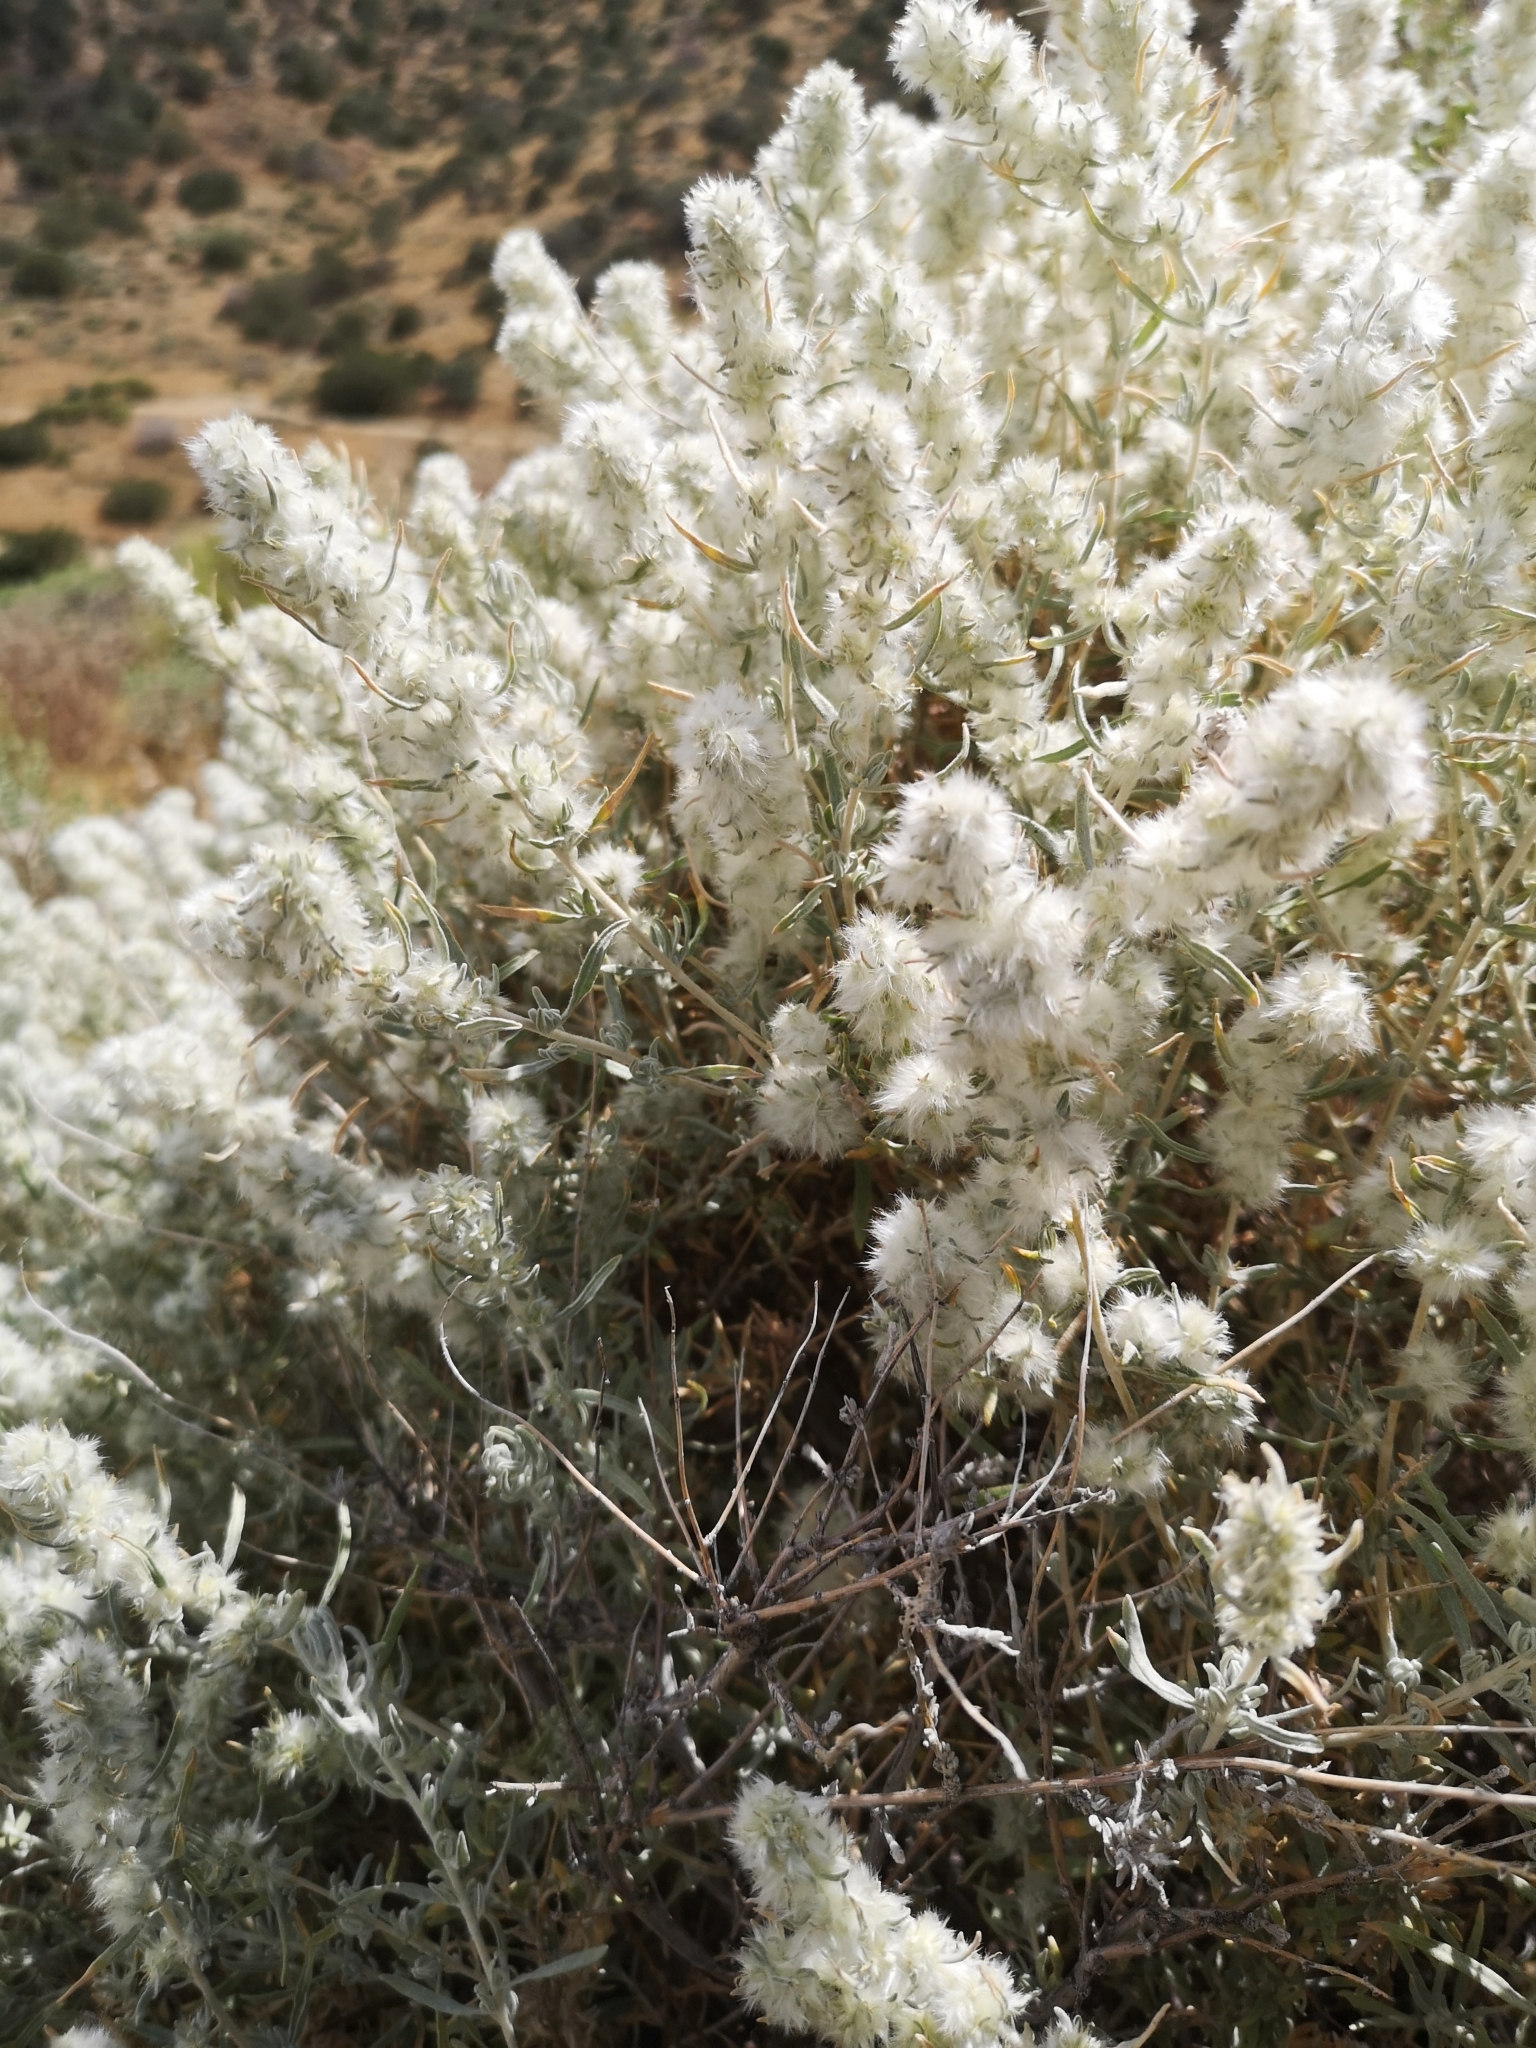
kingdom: Plantae
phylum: Tracheophyta
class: Magnoliopsida
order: Caryophyllales
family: Amaranthaceae
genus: Krascheninnikovia
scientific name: Krascheninnikovia lanata
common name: Winterfat
